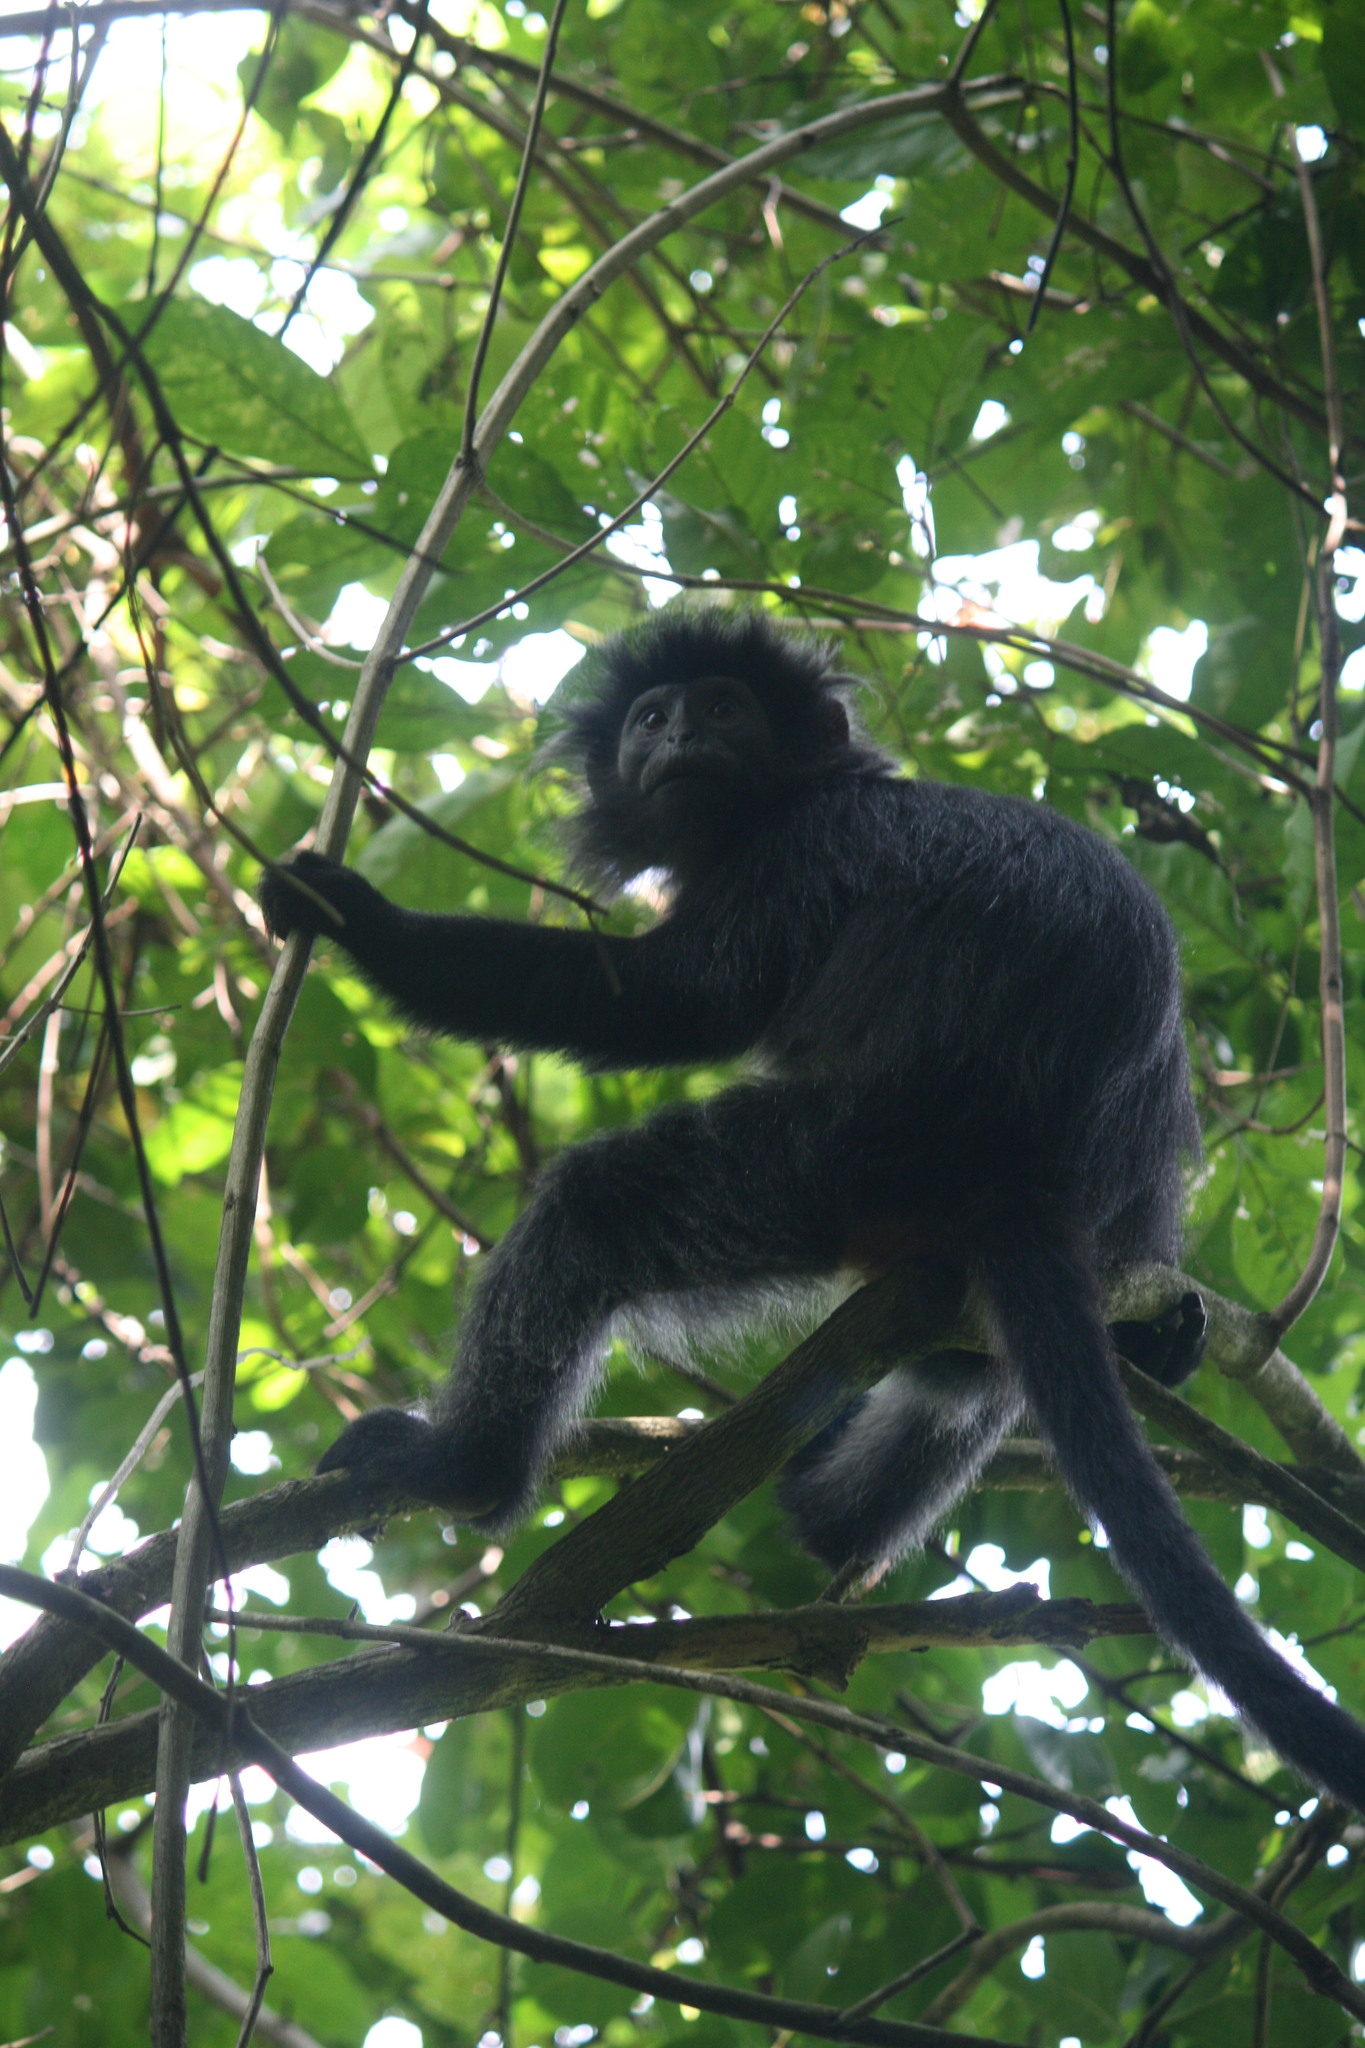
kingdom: Animalia
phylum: Chordata
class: Mammalia
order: Primates
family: Cercopithecidae
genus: Trachypithecus
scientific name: Trachypithecus auratus
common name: Javan lutung
